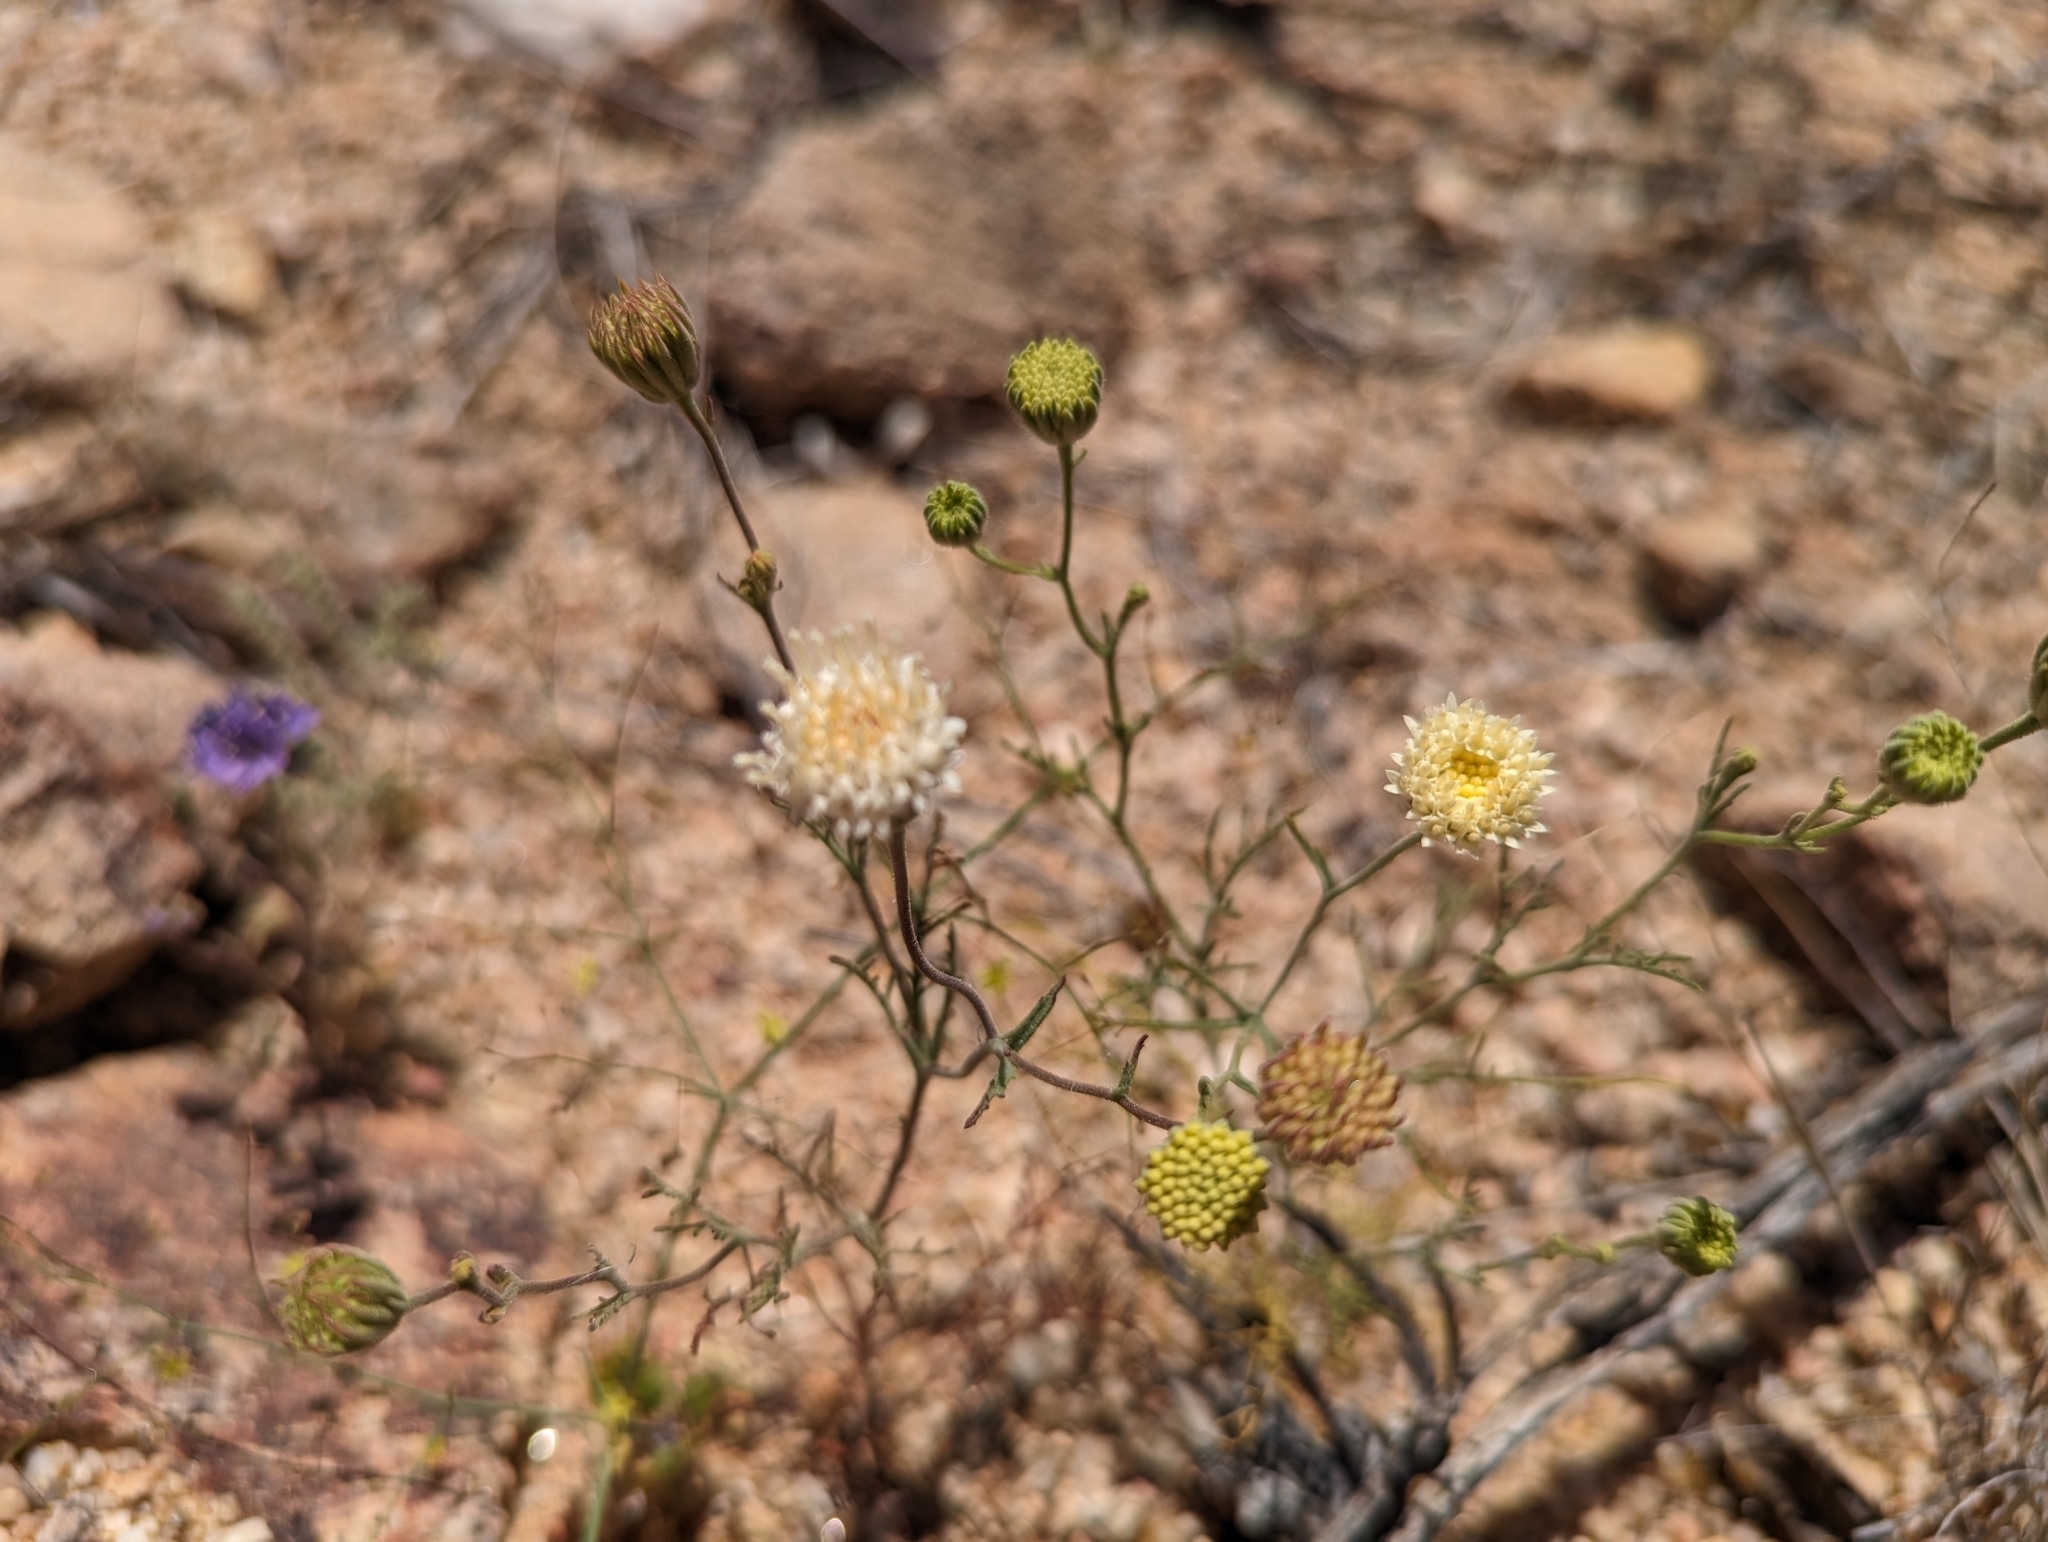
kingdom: Plantae
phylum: Tracheophyta
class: Magnoliopsida
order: Asterales
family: Asteraceae
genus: Chaenactis
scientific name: Chaenactis carphoclinia
